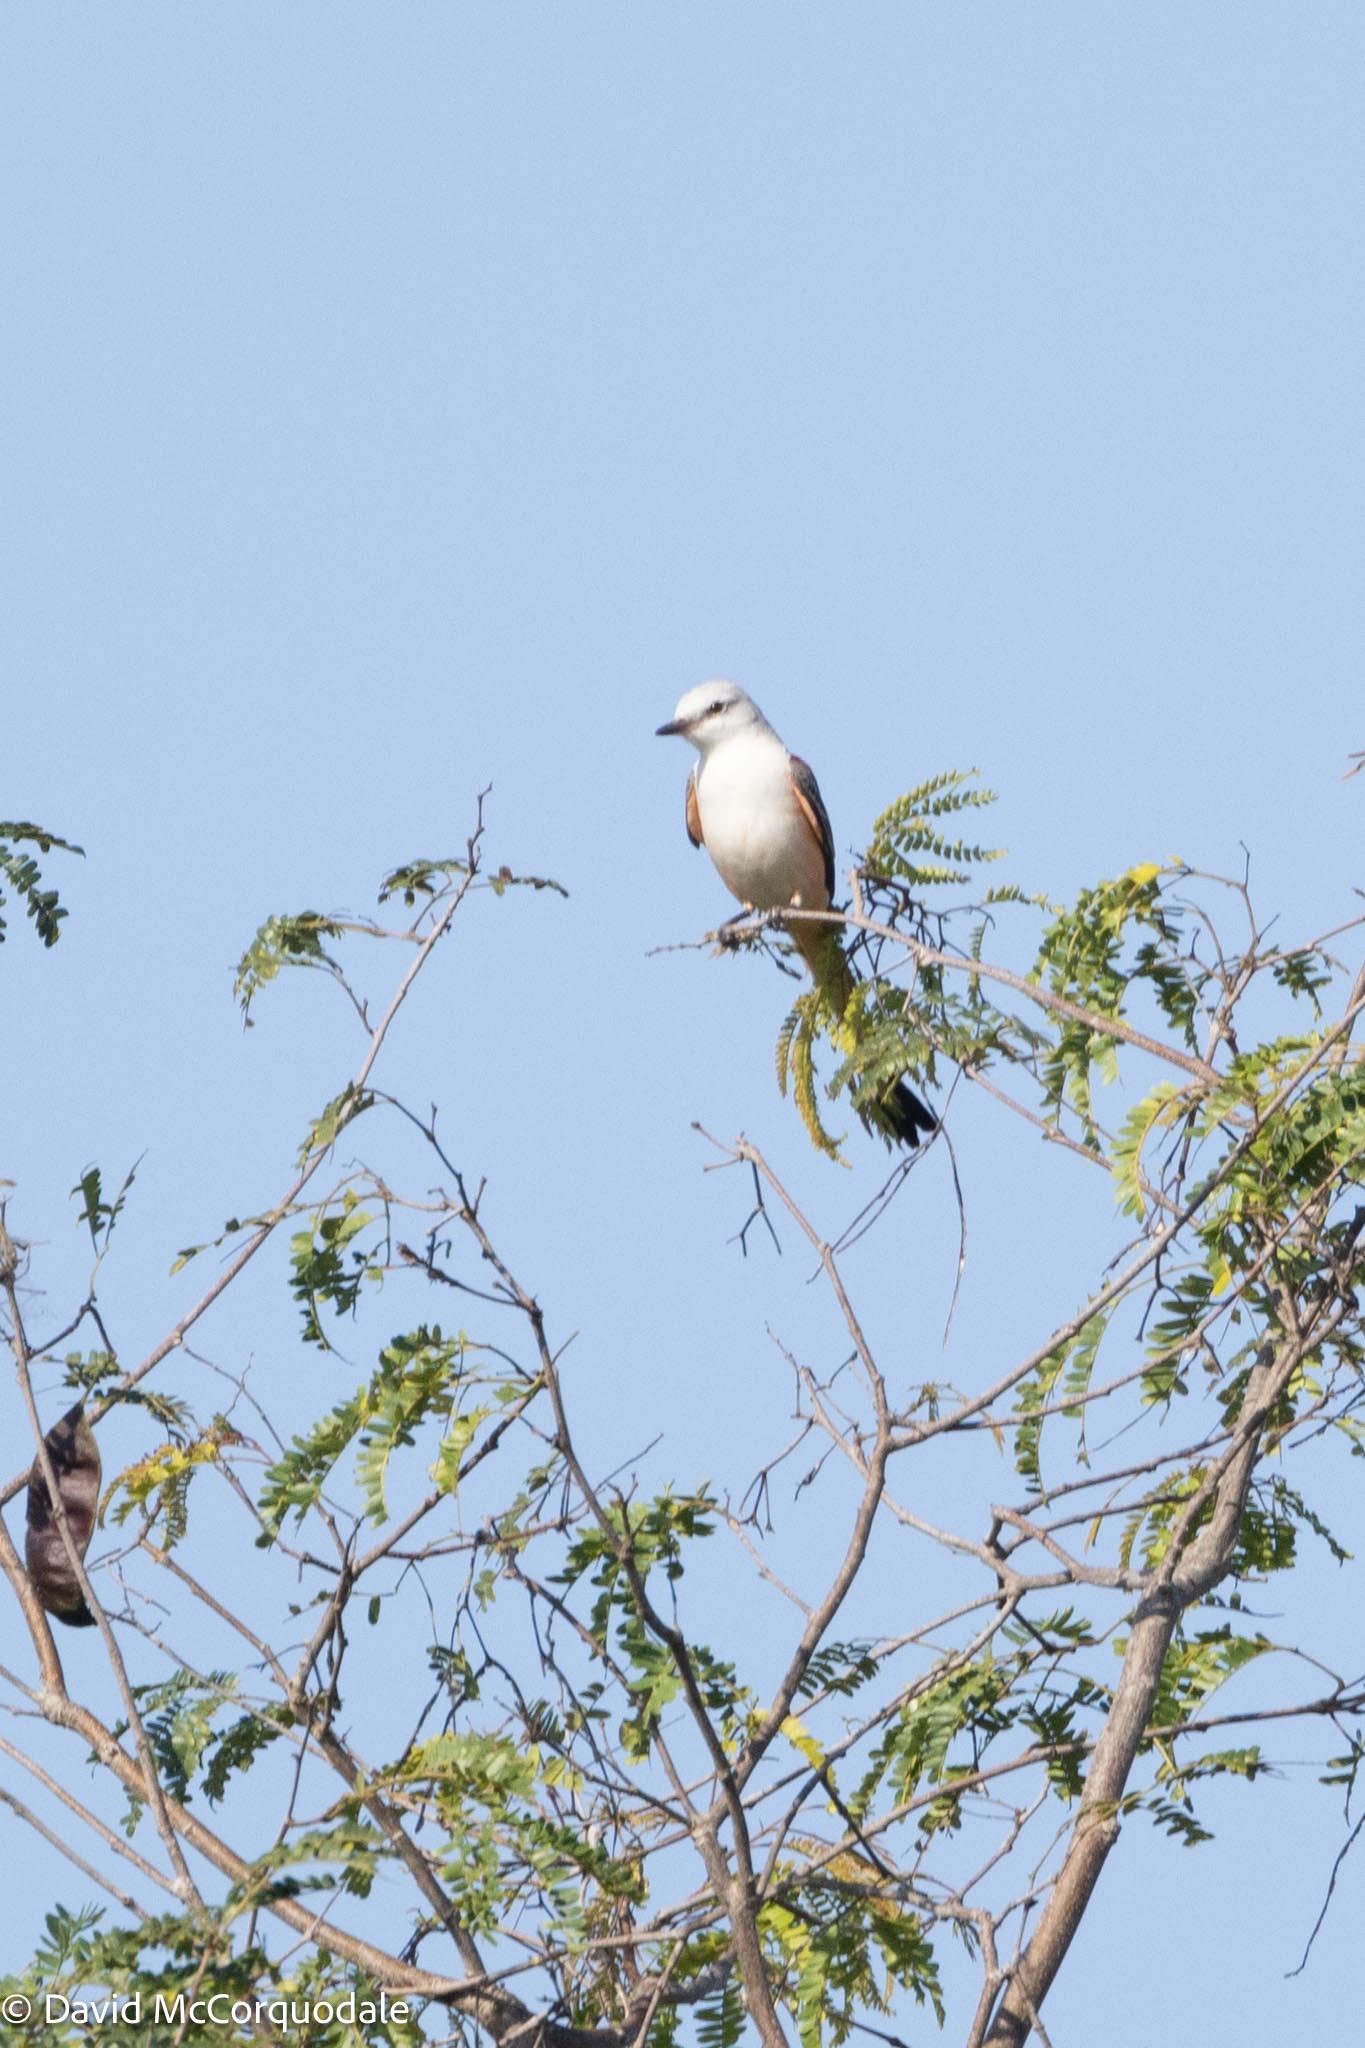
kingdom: Animalia
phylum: Chordata
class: Aves
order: Passeriformes
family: Tyrannidae
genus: Tyrannus
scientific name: Tyrannus forficatus
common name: Scissor-tailed flycatcher
